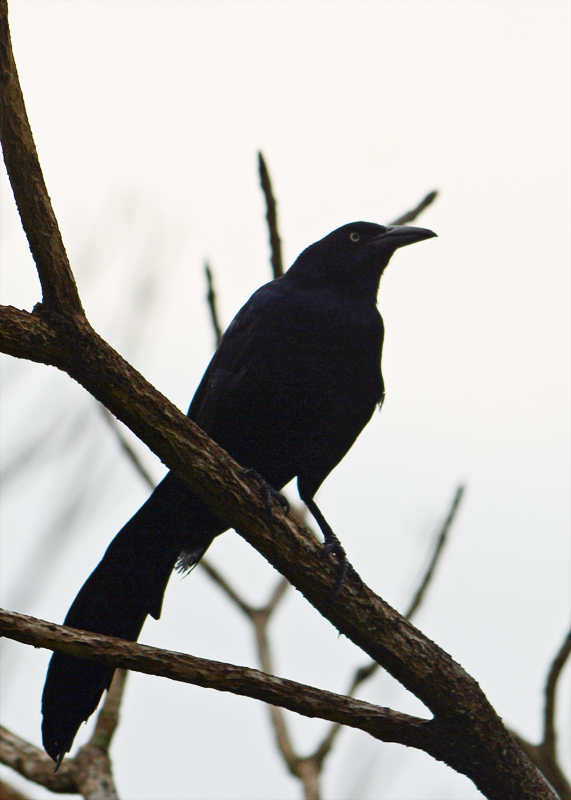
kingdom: Animalia
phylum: Chordata
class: Aves
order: Passeriformes
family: Icteridae
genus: Quiscalus
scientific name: Quiscalus mexicanus
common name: Great-tailed grackle
